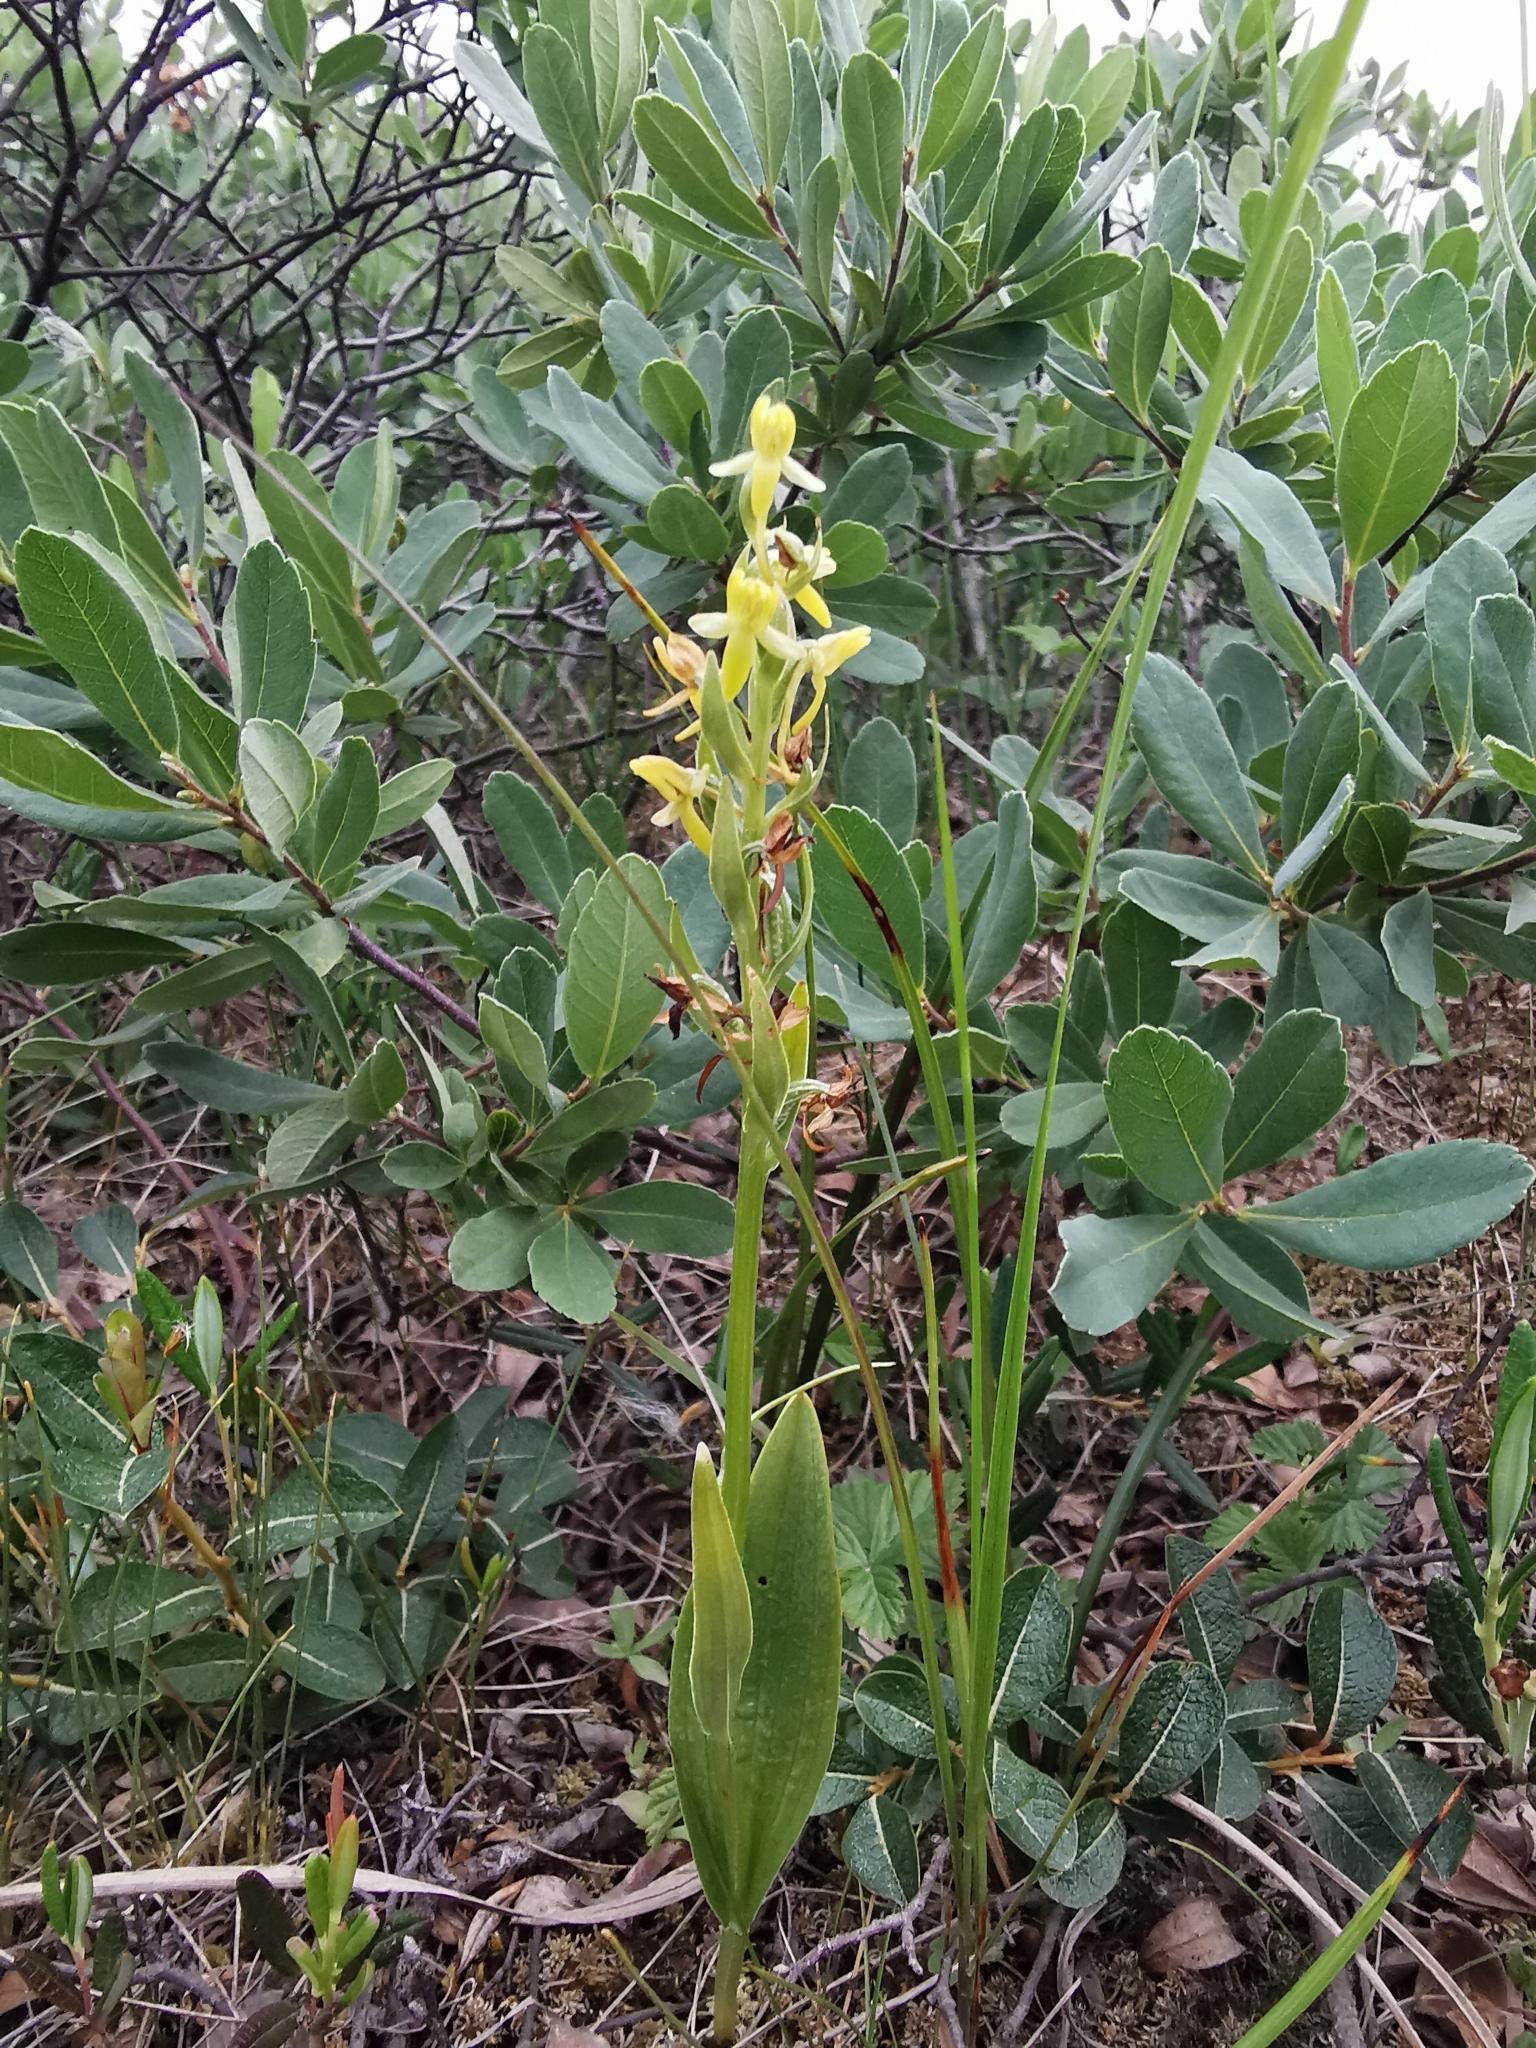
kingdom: Plantae
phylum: Tracheophyta
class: Liliopsida
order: Asparagales
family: Orchidaceae
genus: Platanthera
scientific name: Platanthera tipuloides
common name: Aleutian bog orchid
